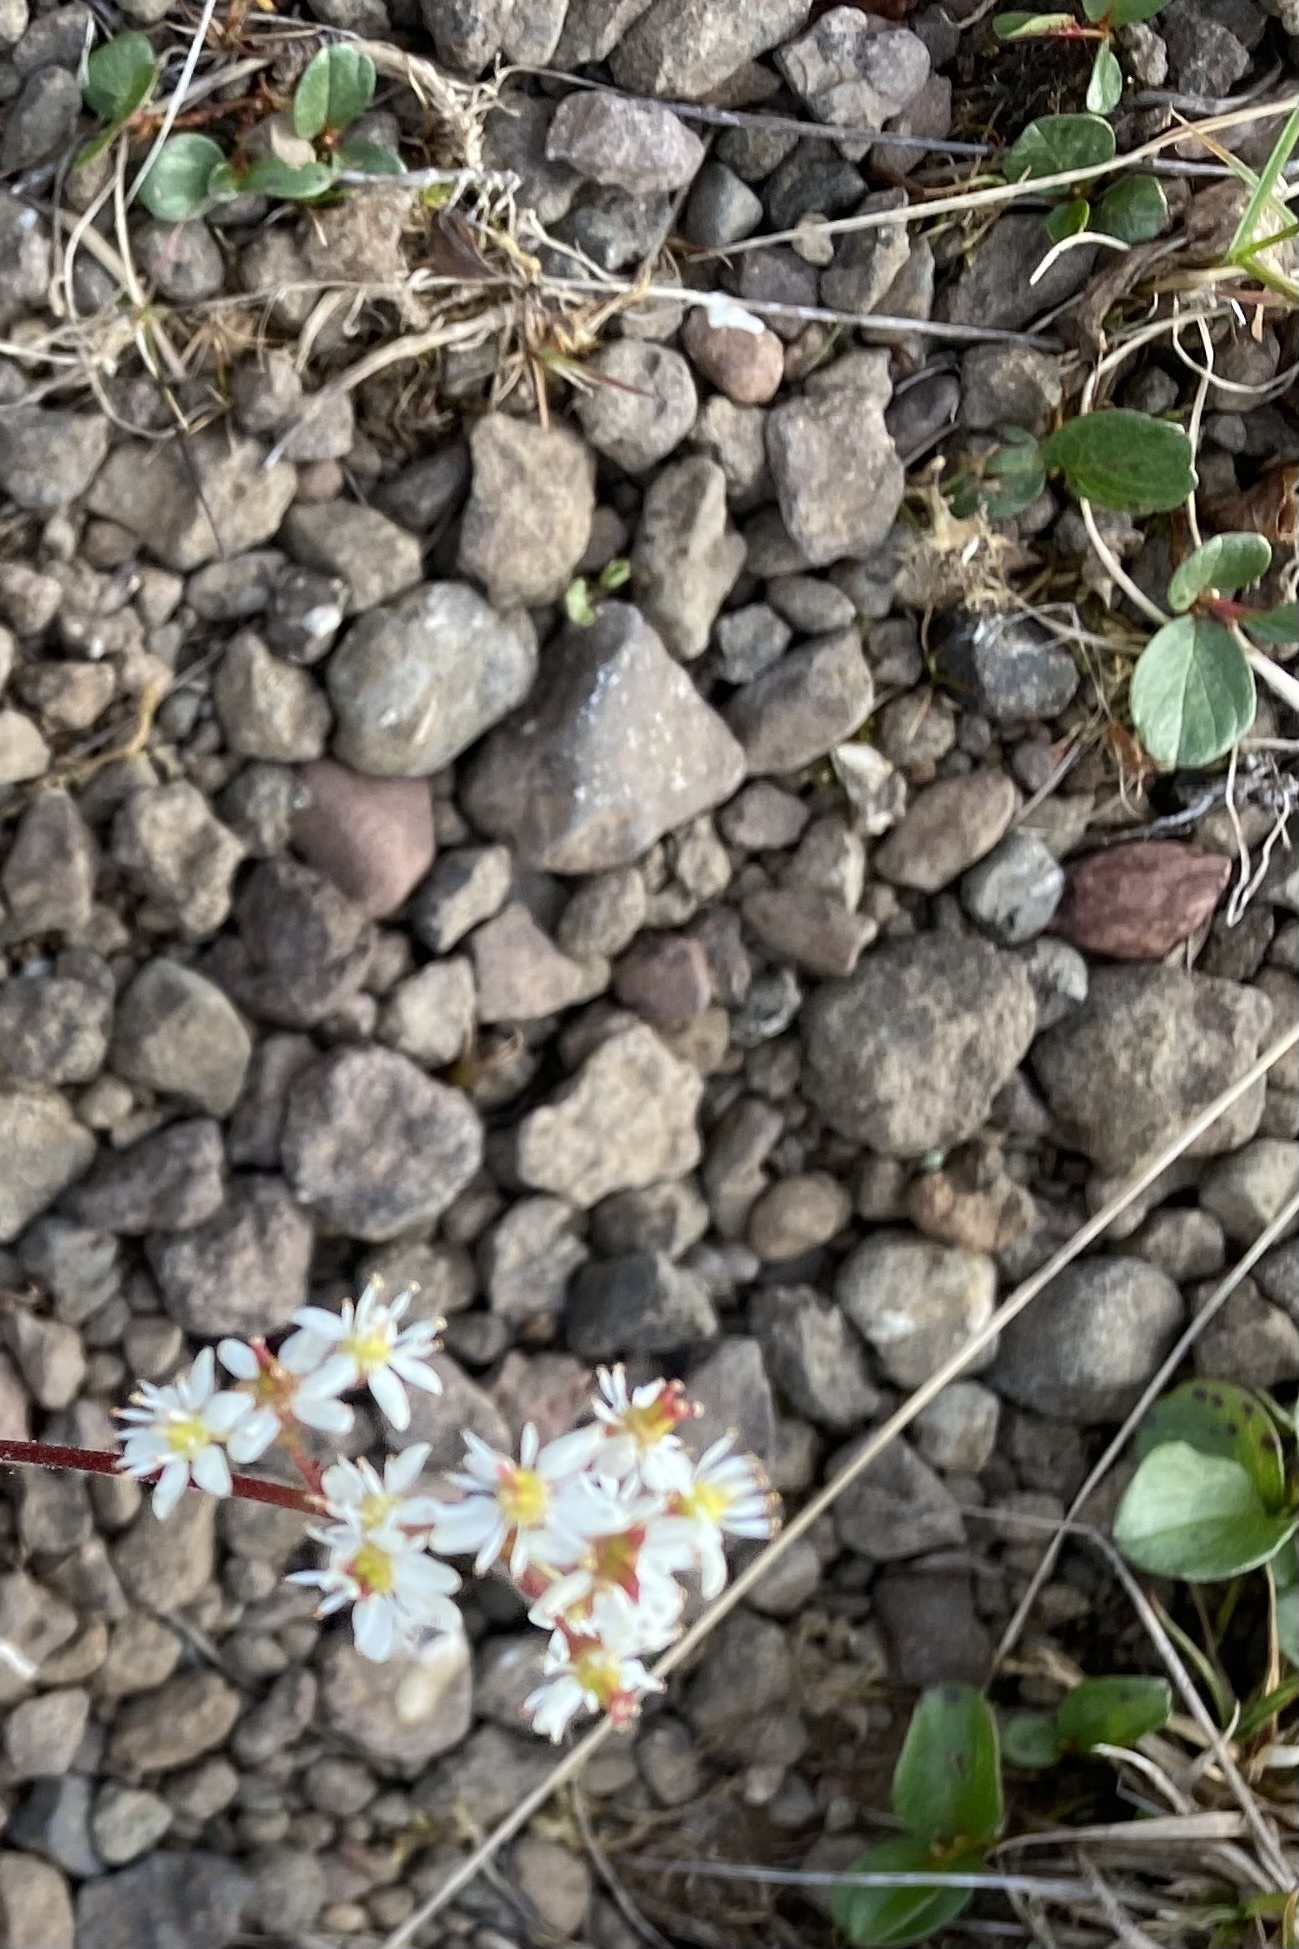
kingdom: Plantae
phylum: Tracheophyta
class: Magnoliopsida
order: Malpighiales
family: Salicaceae
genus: Salix
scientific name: Salix polaris
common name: Polar willow
